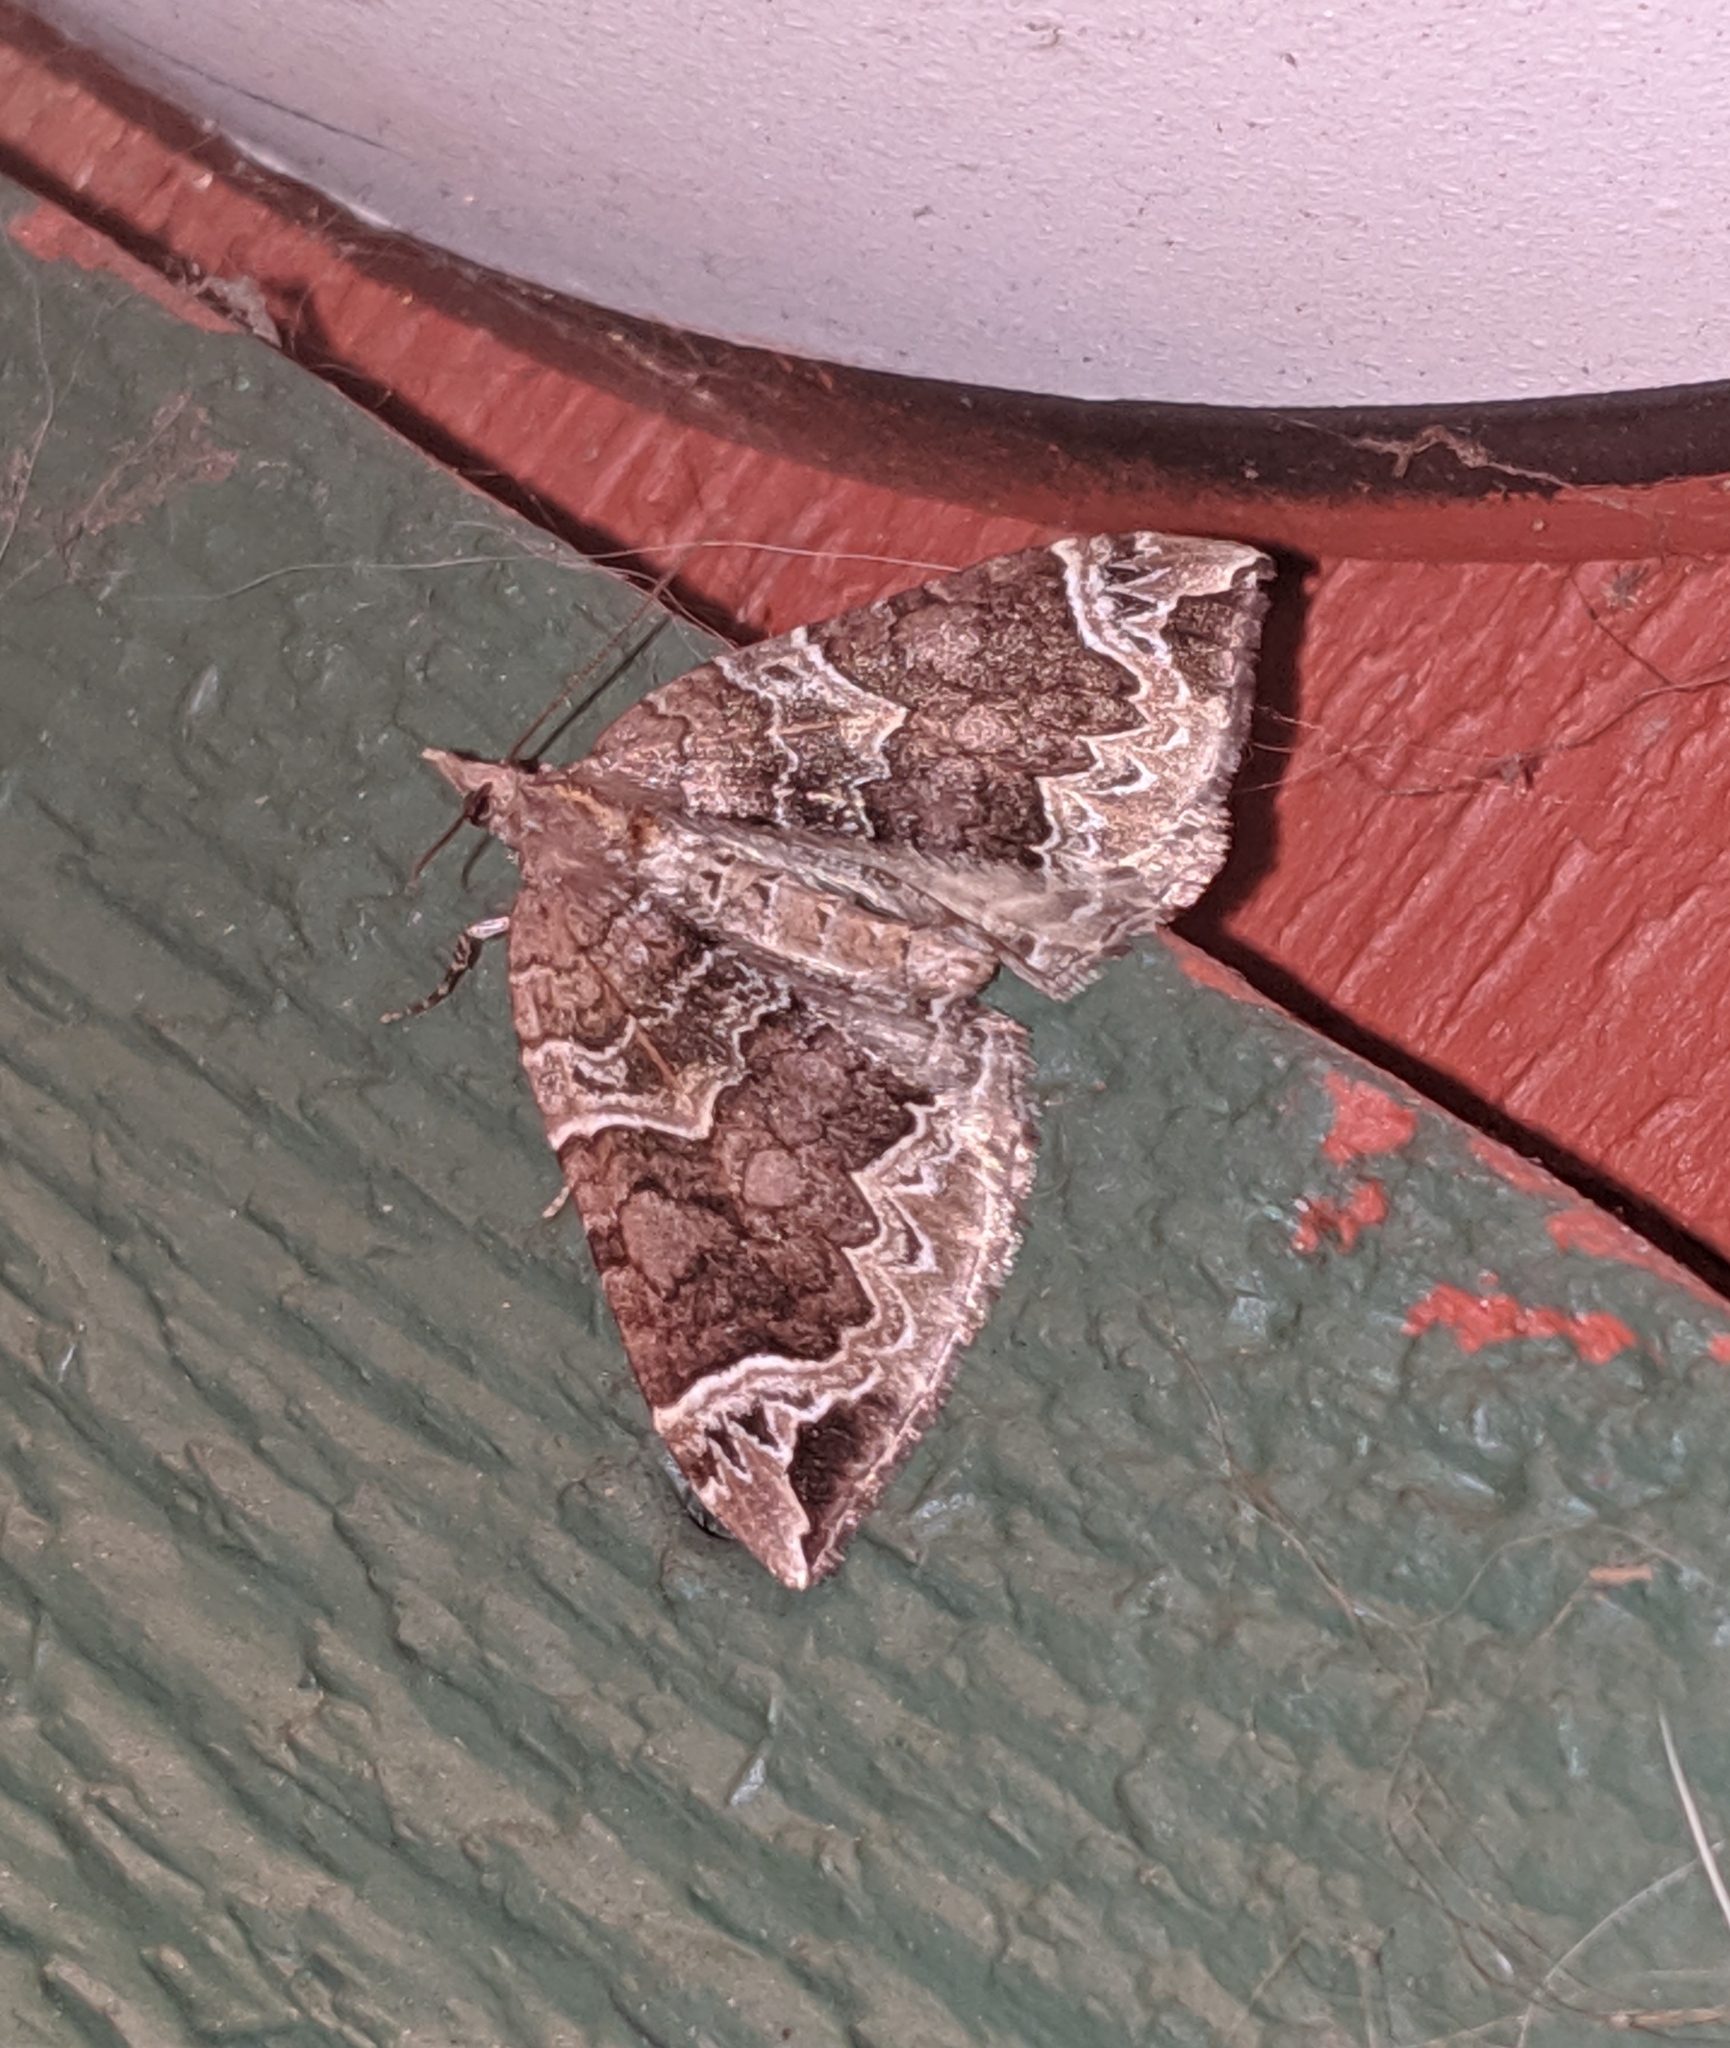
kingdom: Animalia
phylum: Arthropoda
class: Insecta
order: Lepidoptera
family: Geometridae
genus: Eulithis
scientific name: Eulithis xylina
